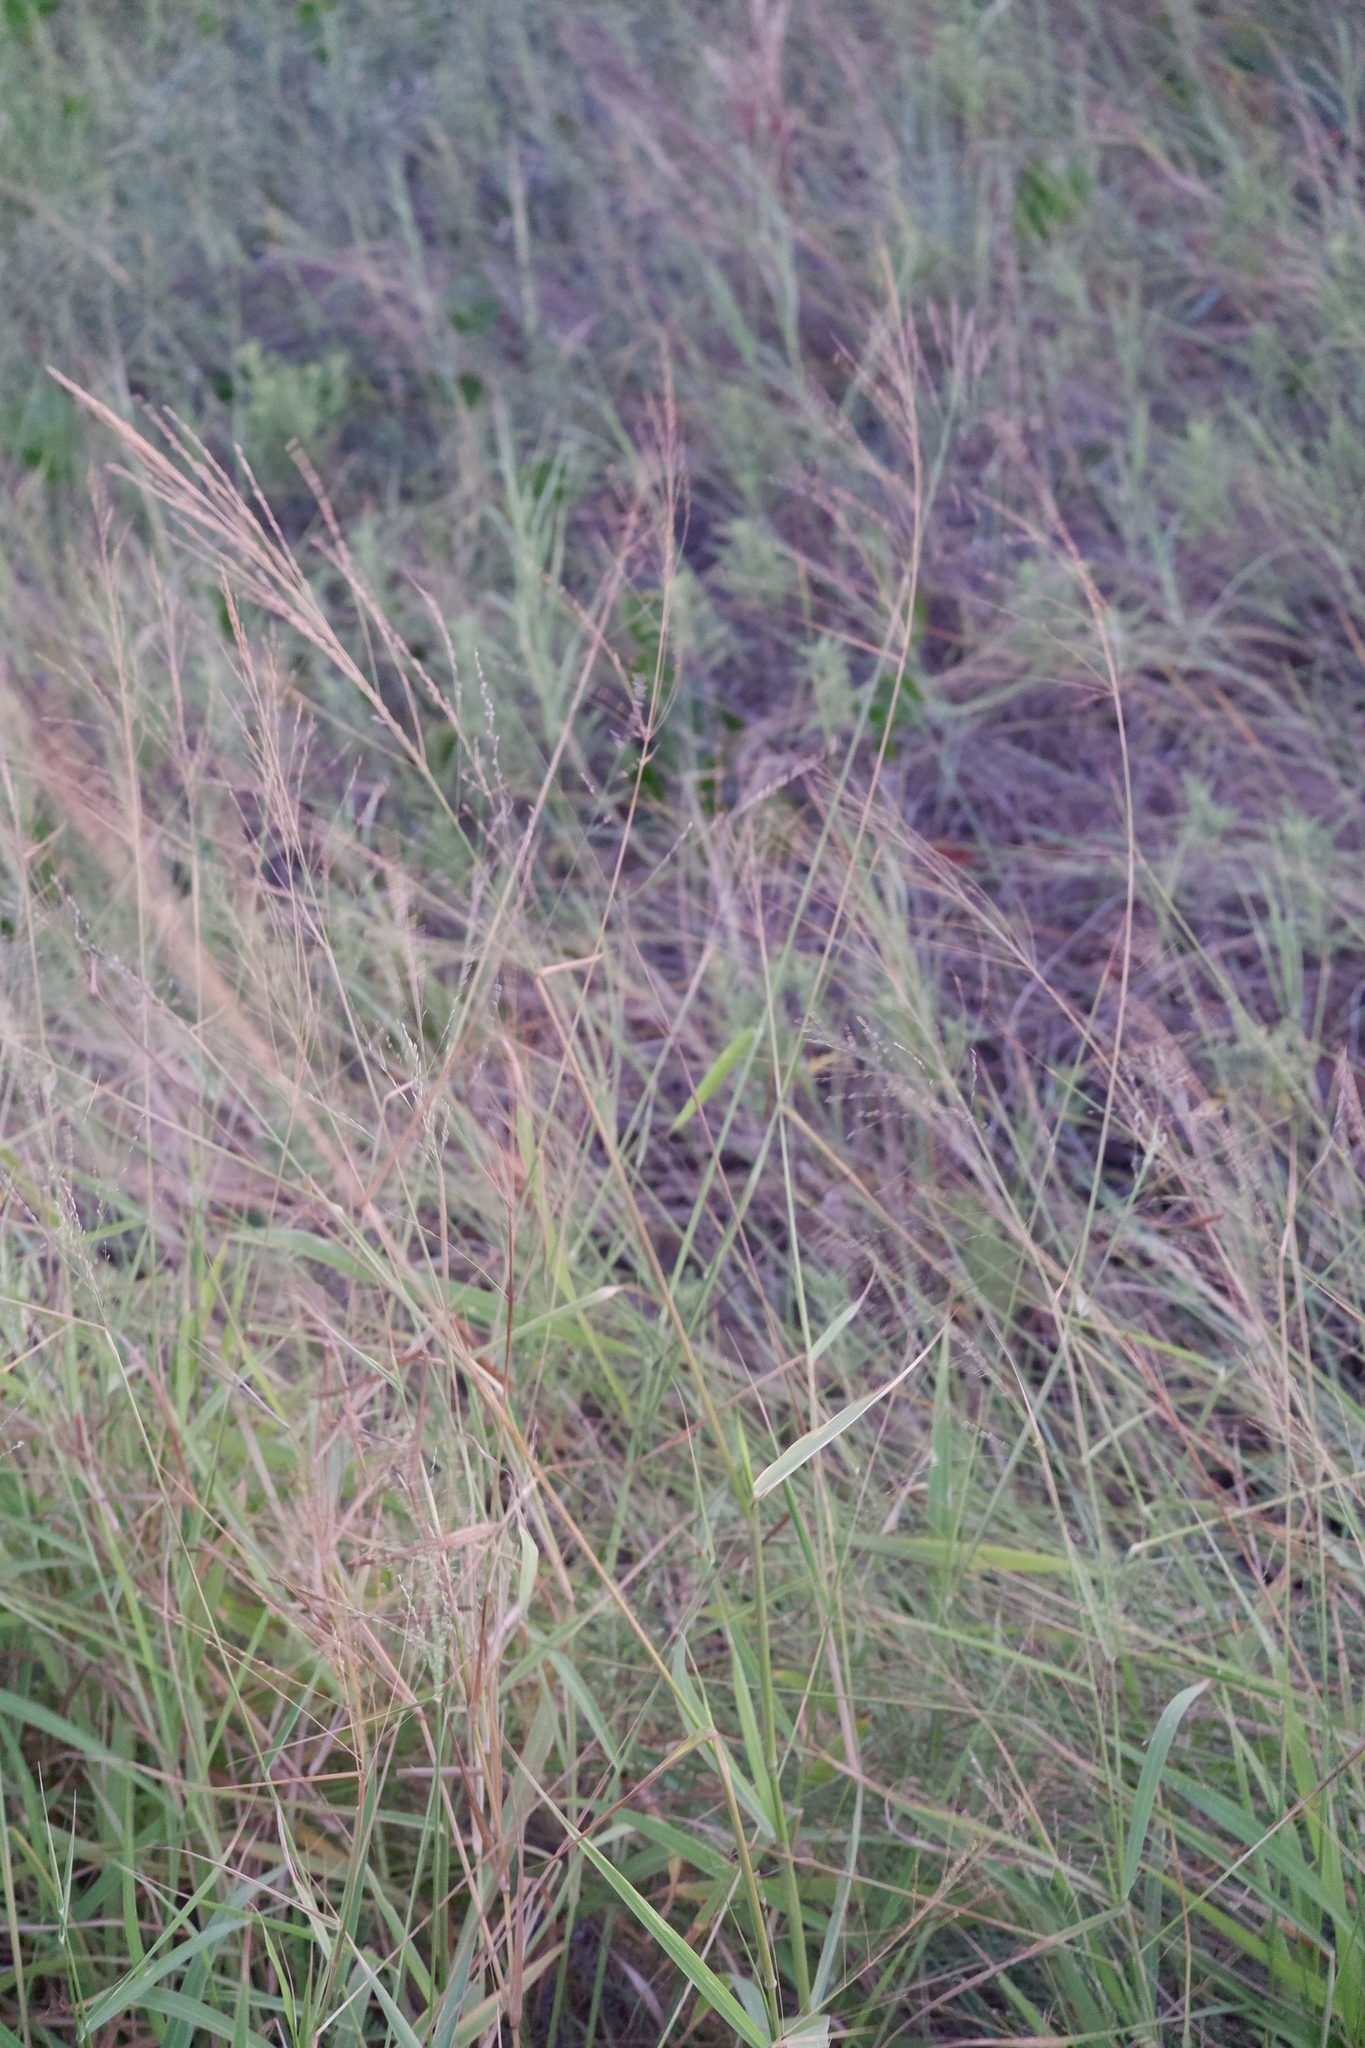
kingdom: Plantae
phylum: Tracheophyta
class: Liliopsida
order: Poales
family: Poaceae
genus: Megathyrsus
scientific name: Megathyrsus maximus
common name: Guineagrass
